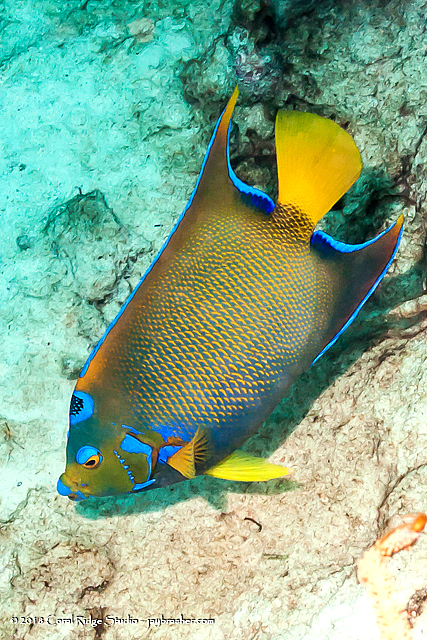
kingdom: Animalia
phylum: Chordata
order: Perciformes
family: Pomacanthidae
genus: Holacanthus
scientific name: Holacanthus ciliaris
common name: Queen angelfish
